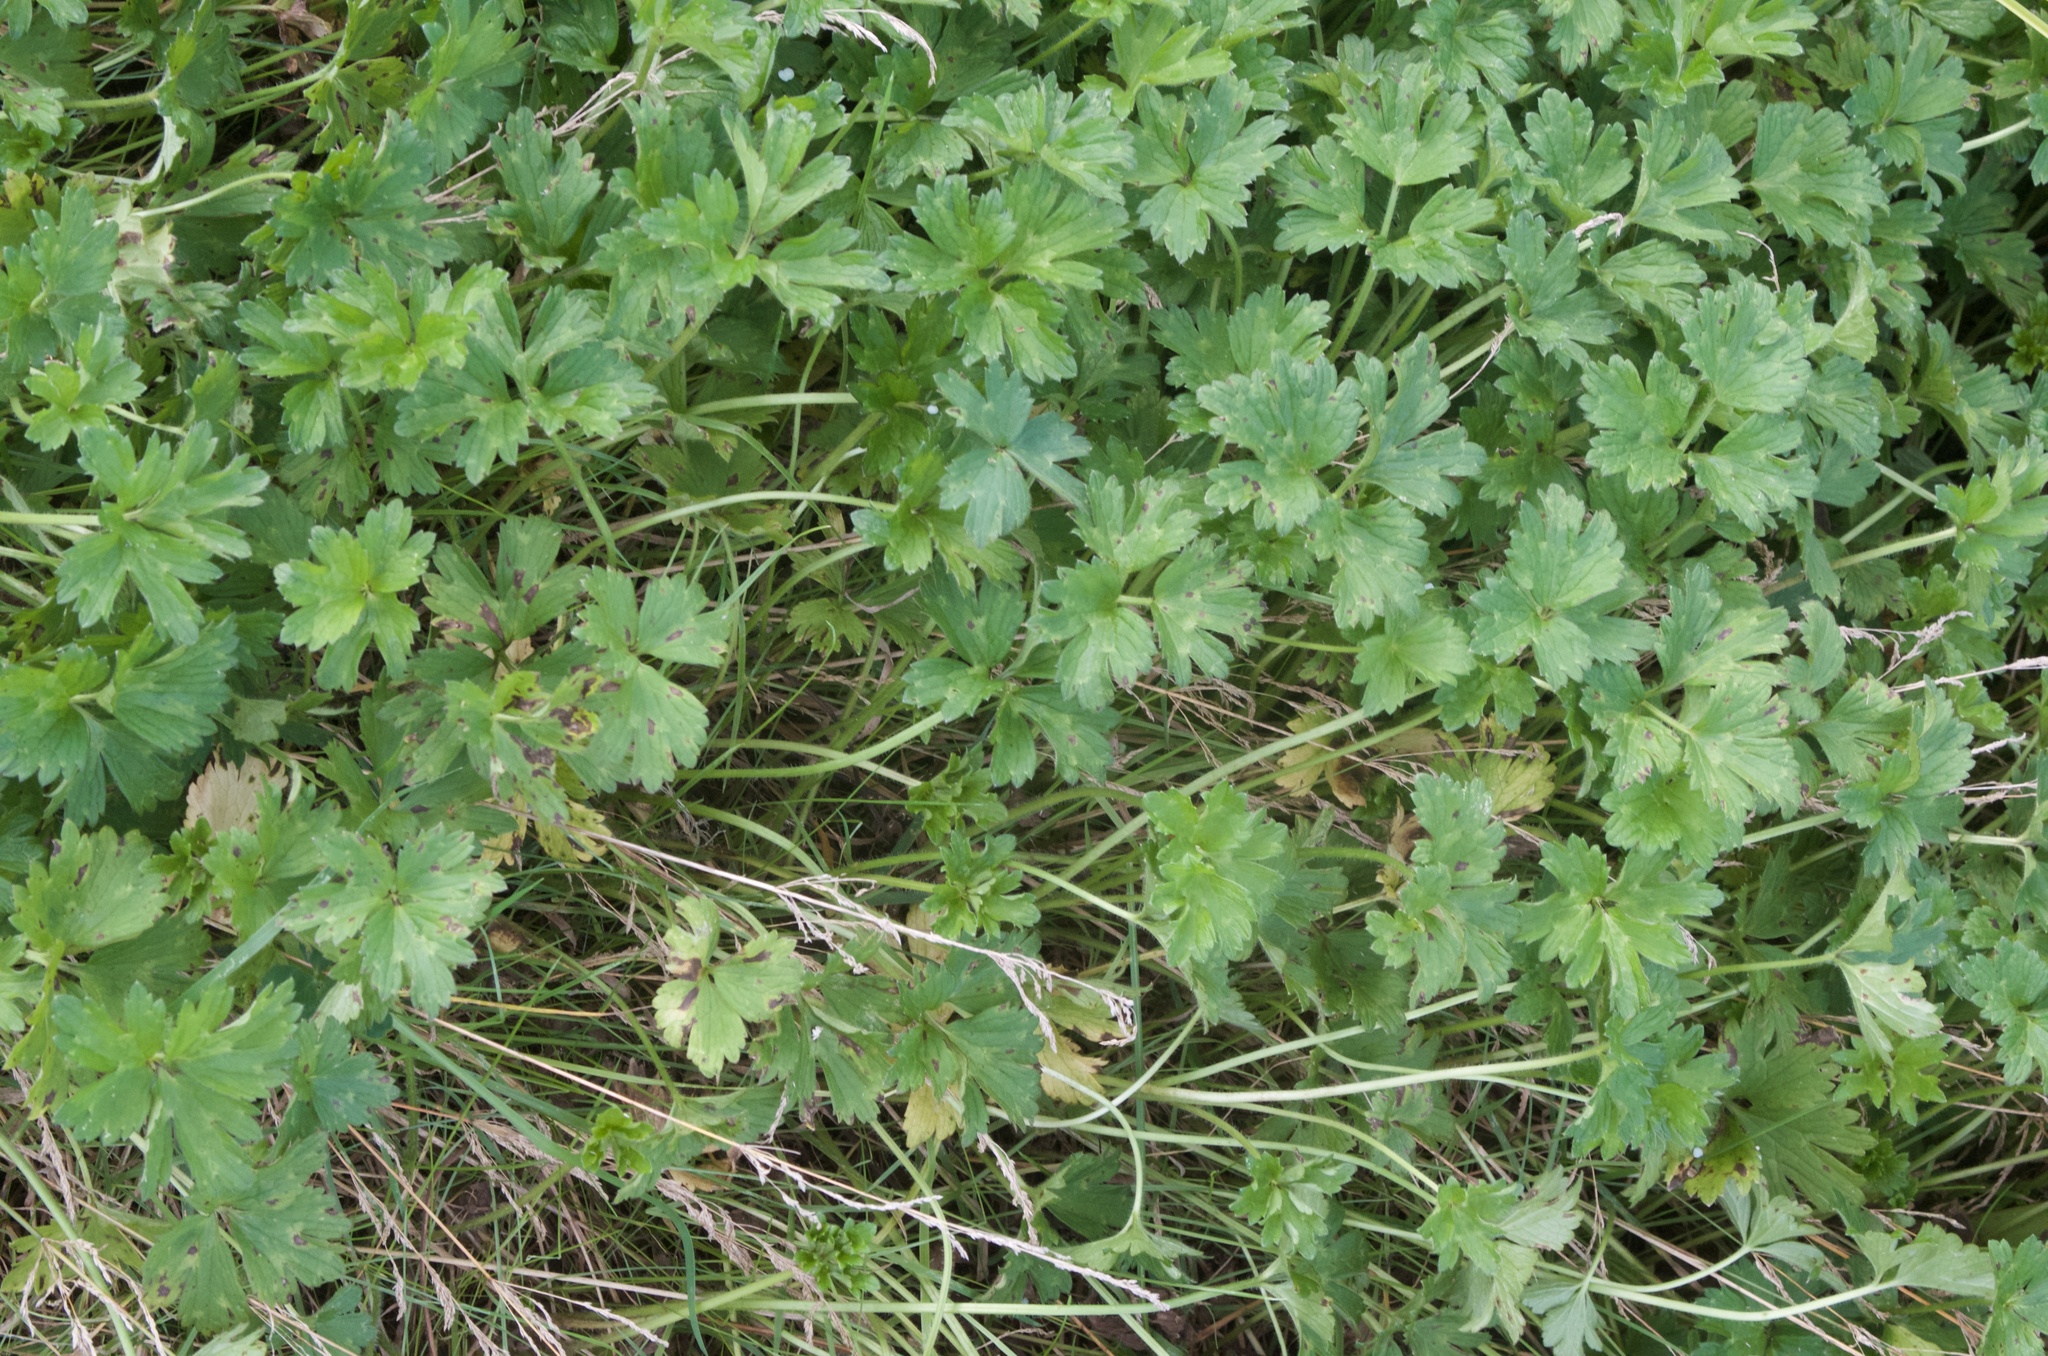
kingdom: Plantae
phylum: Tracheophyta
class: Magnoliopsida
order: Ranunculales
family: Ranunculaceae
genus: Ranunculus
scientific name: Ranunculus repens
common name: Creeping buttercup
